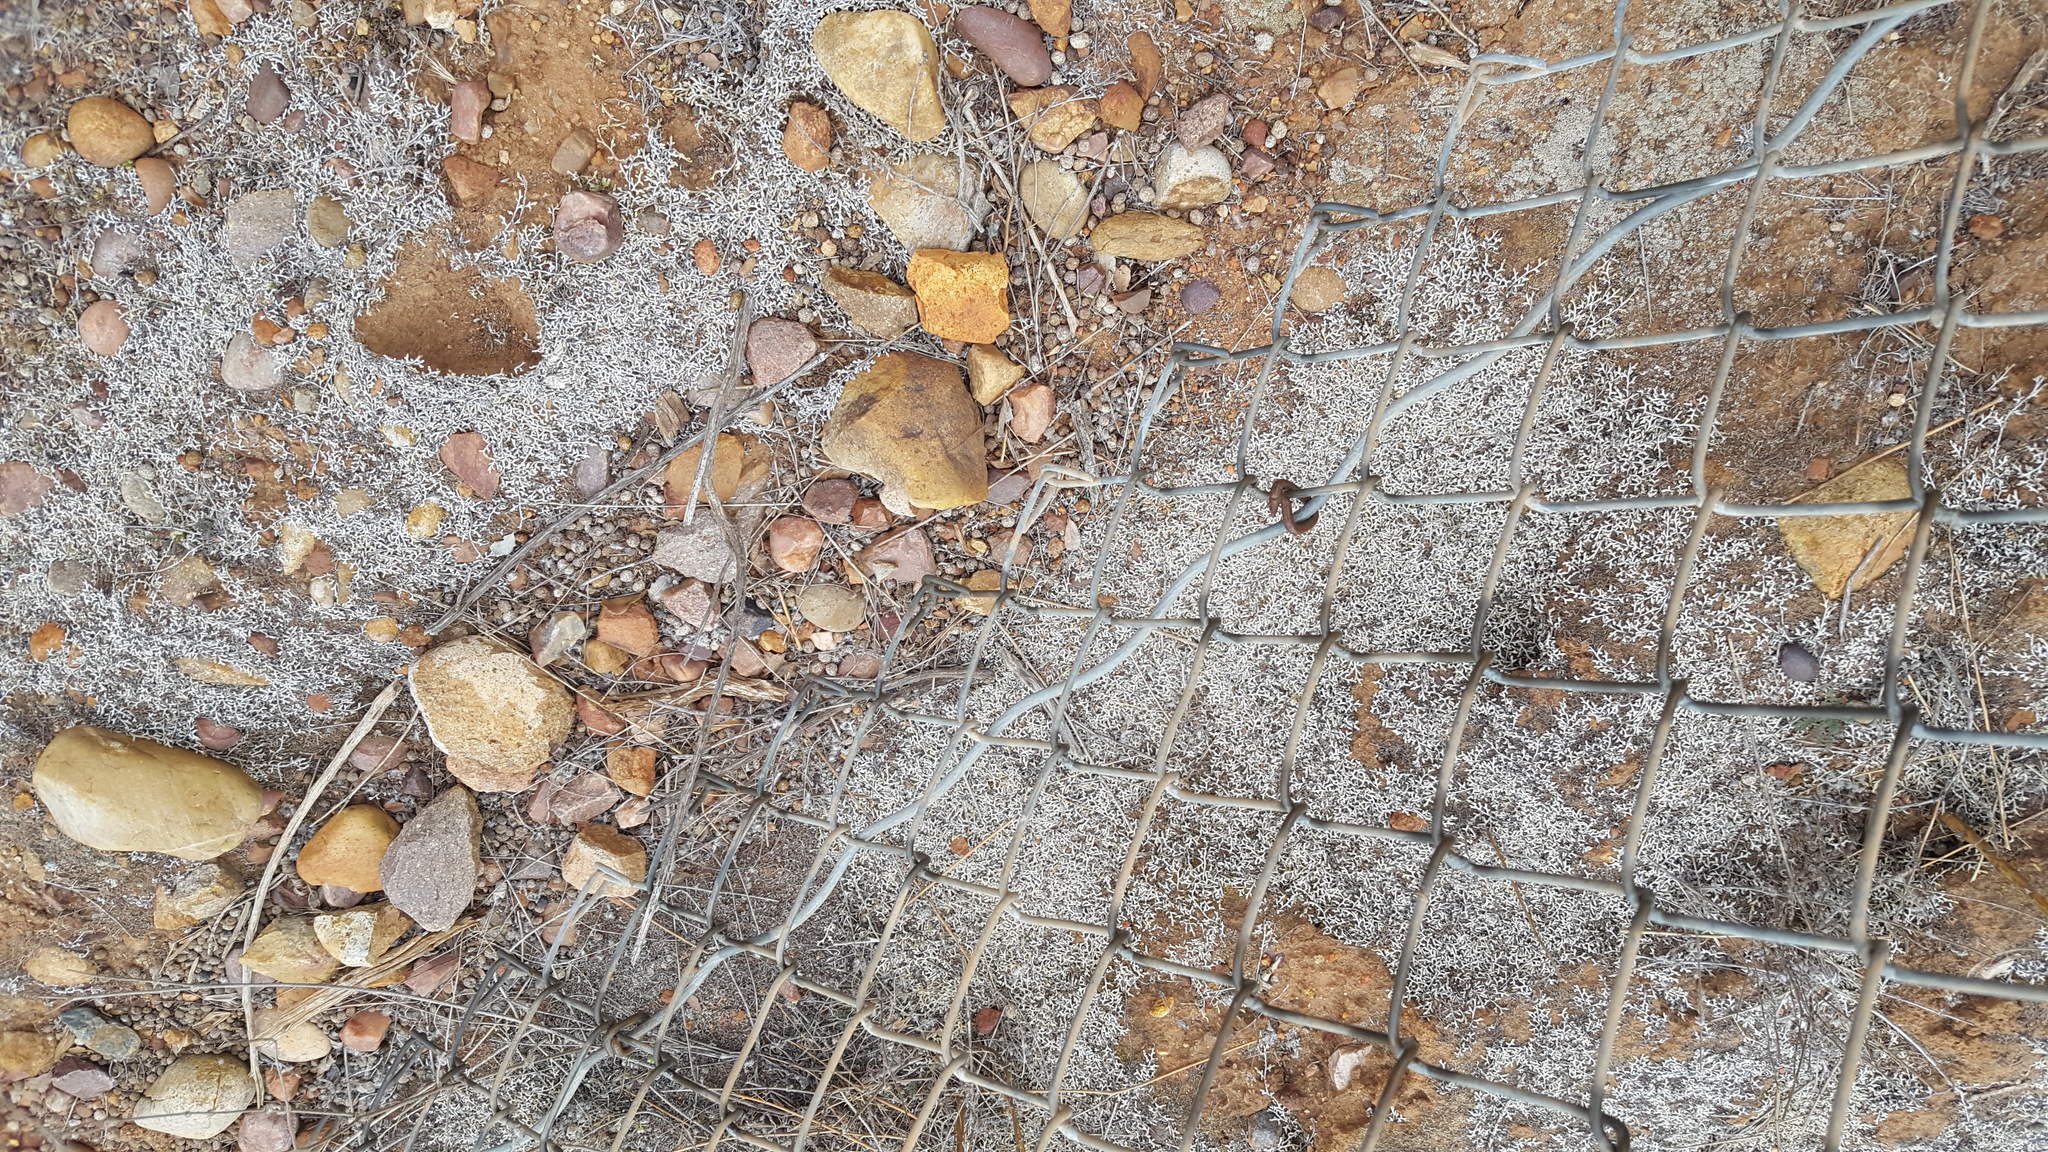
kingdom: Plantae
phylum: Tracheophyta
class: Lycopodiopsida
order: Selaginellales
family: Selaginellaceae
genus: Selaginella
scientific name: Selaginella cinerascens
